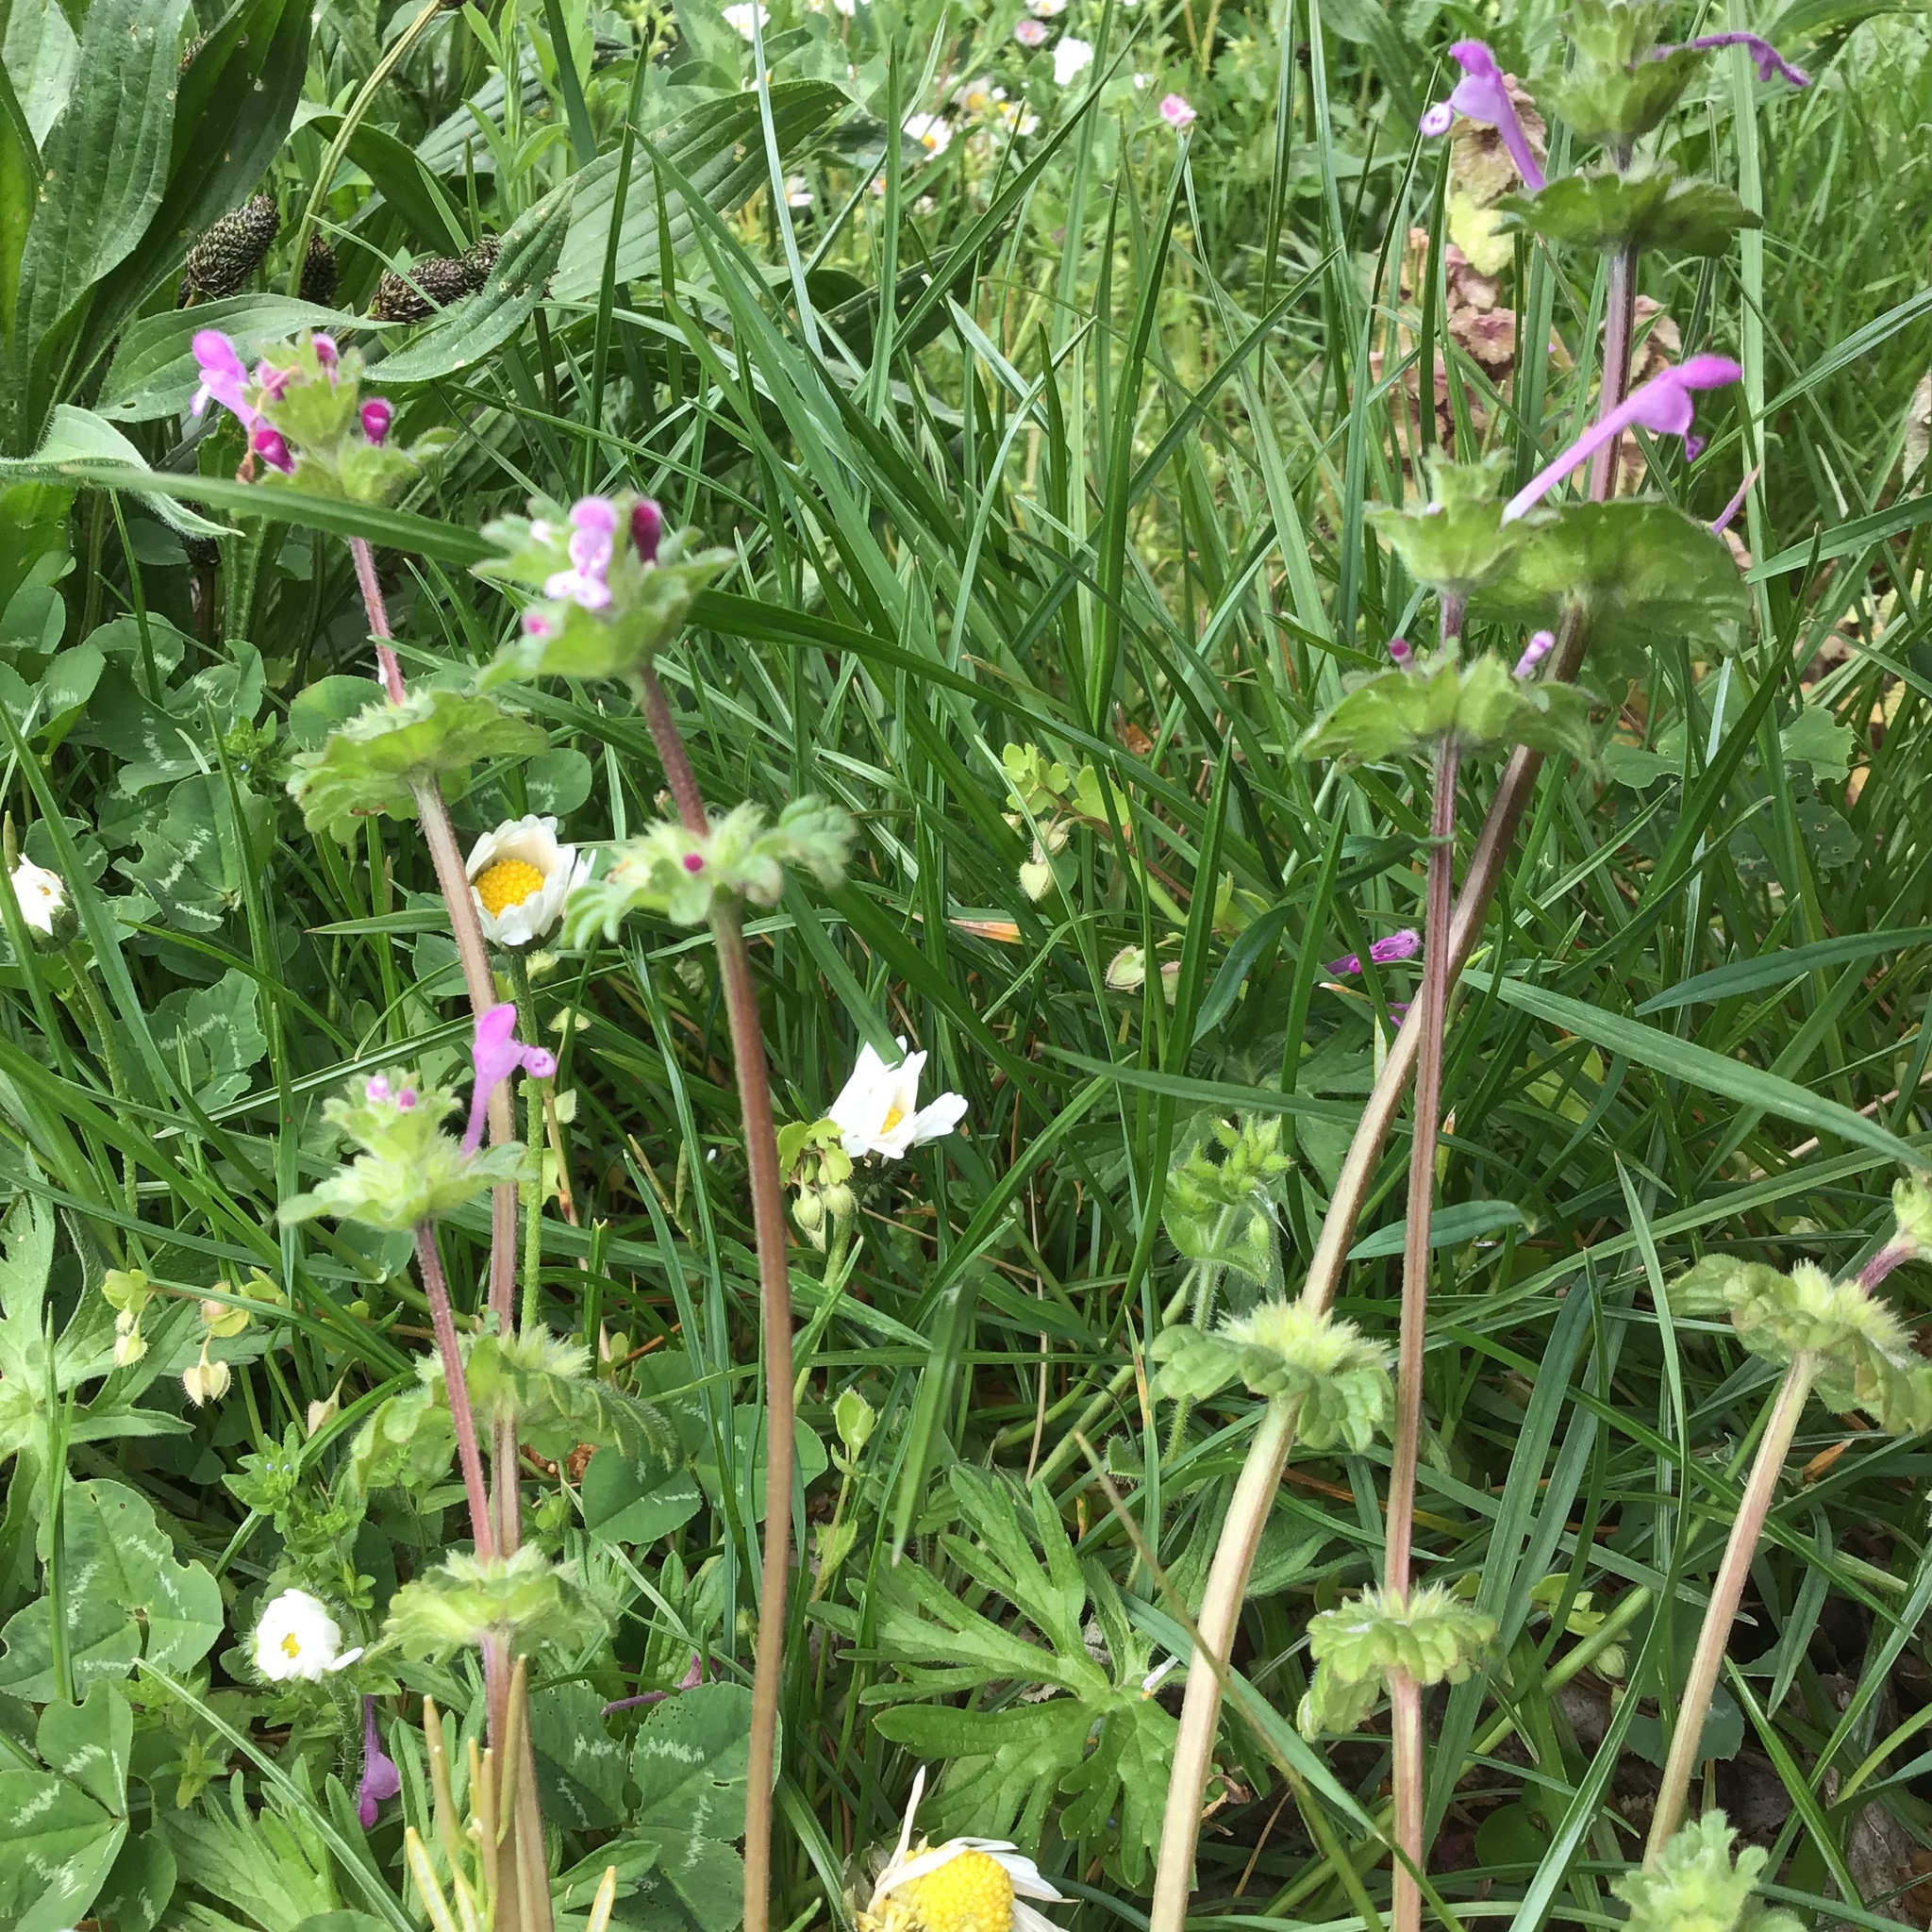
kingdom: Plantae
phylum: Tracheophyta
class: Magnoliopsida
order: Lamiales
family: Lamiaceae
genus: Lamium
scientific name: Lamium amplexicaule
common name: Henbit dead-nettle
